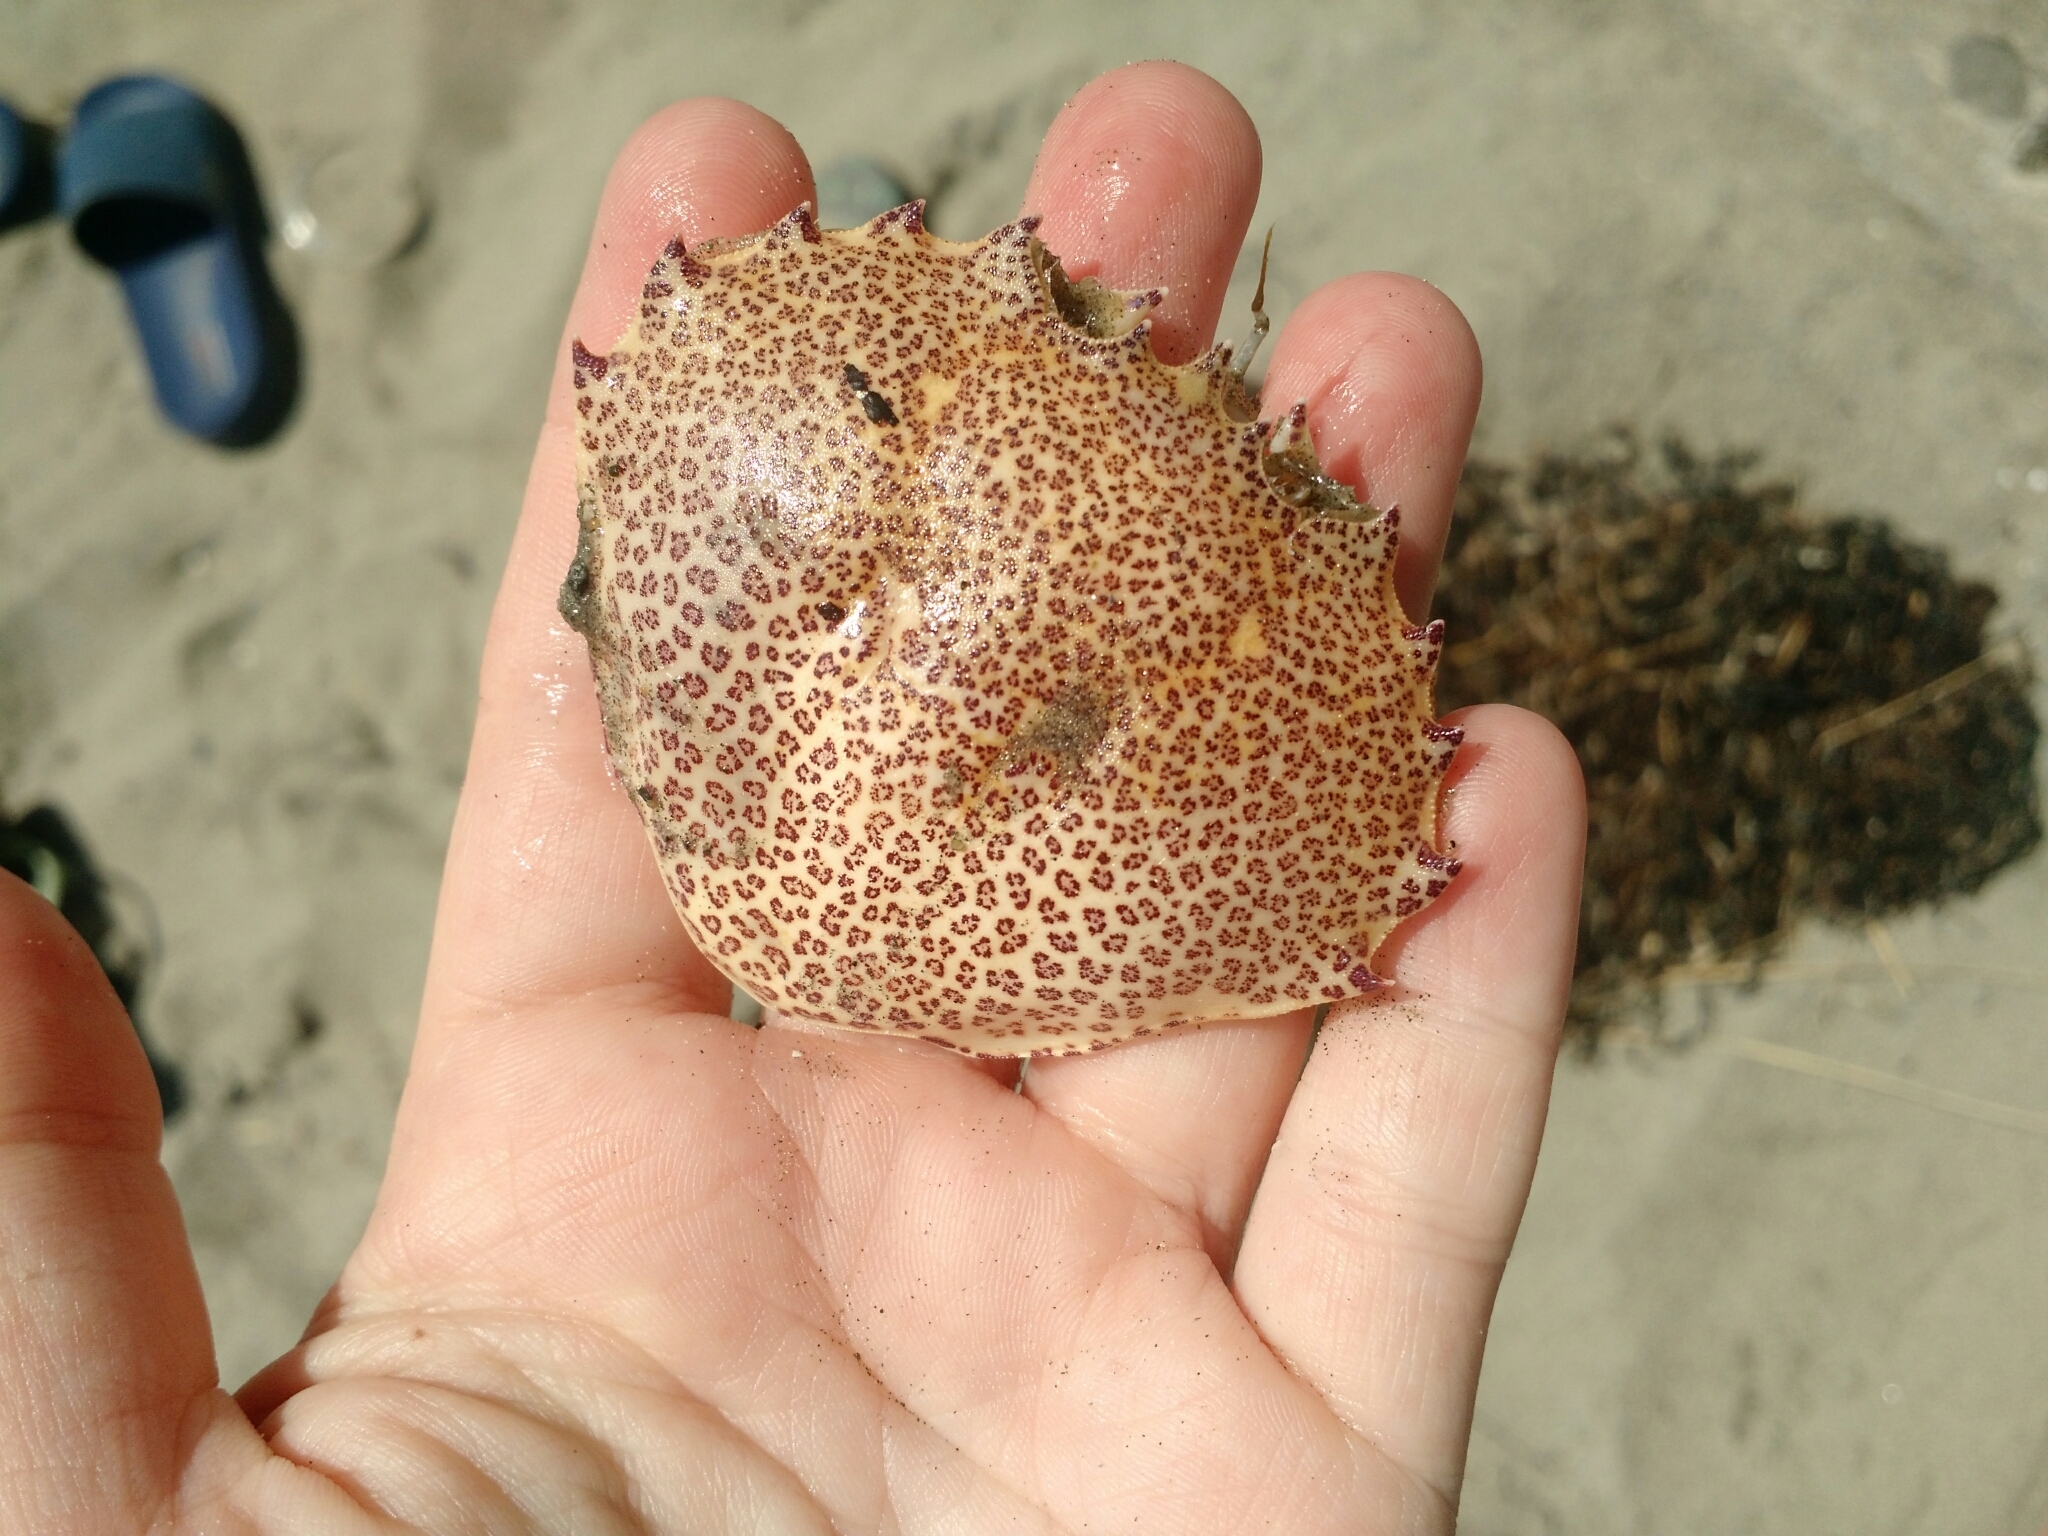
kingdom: Animalia
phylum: Arthropoda
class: Malacostraca
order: Decapoda
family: Ovalipidae
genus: Ovalipes
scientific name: Ovalipes ocellatus
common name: Lady crab
